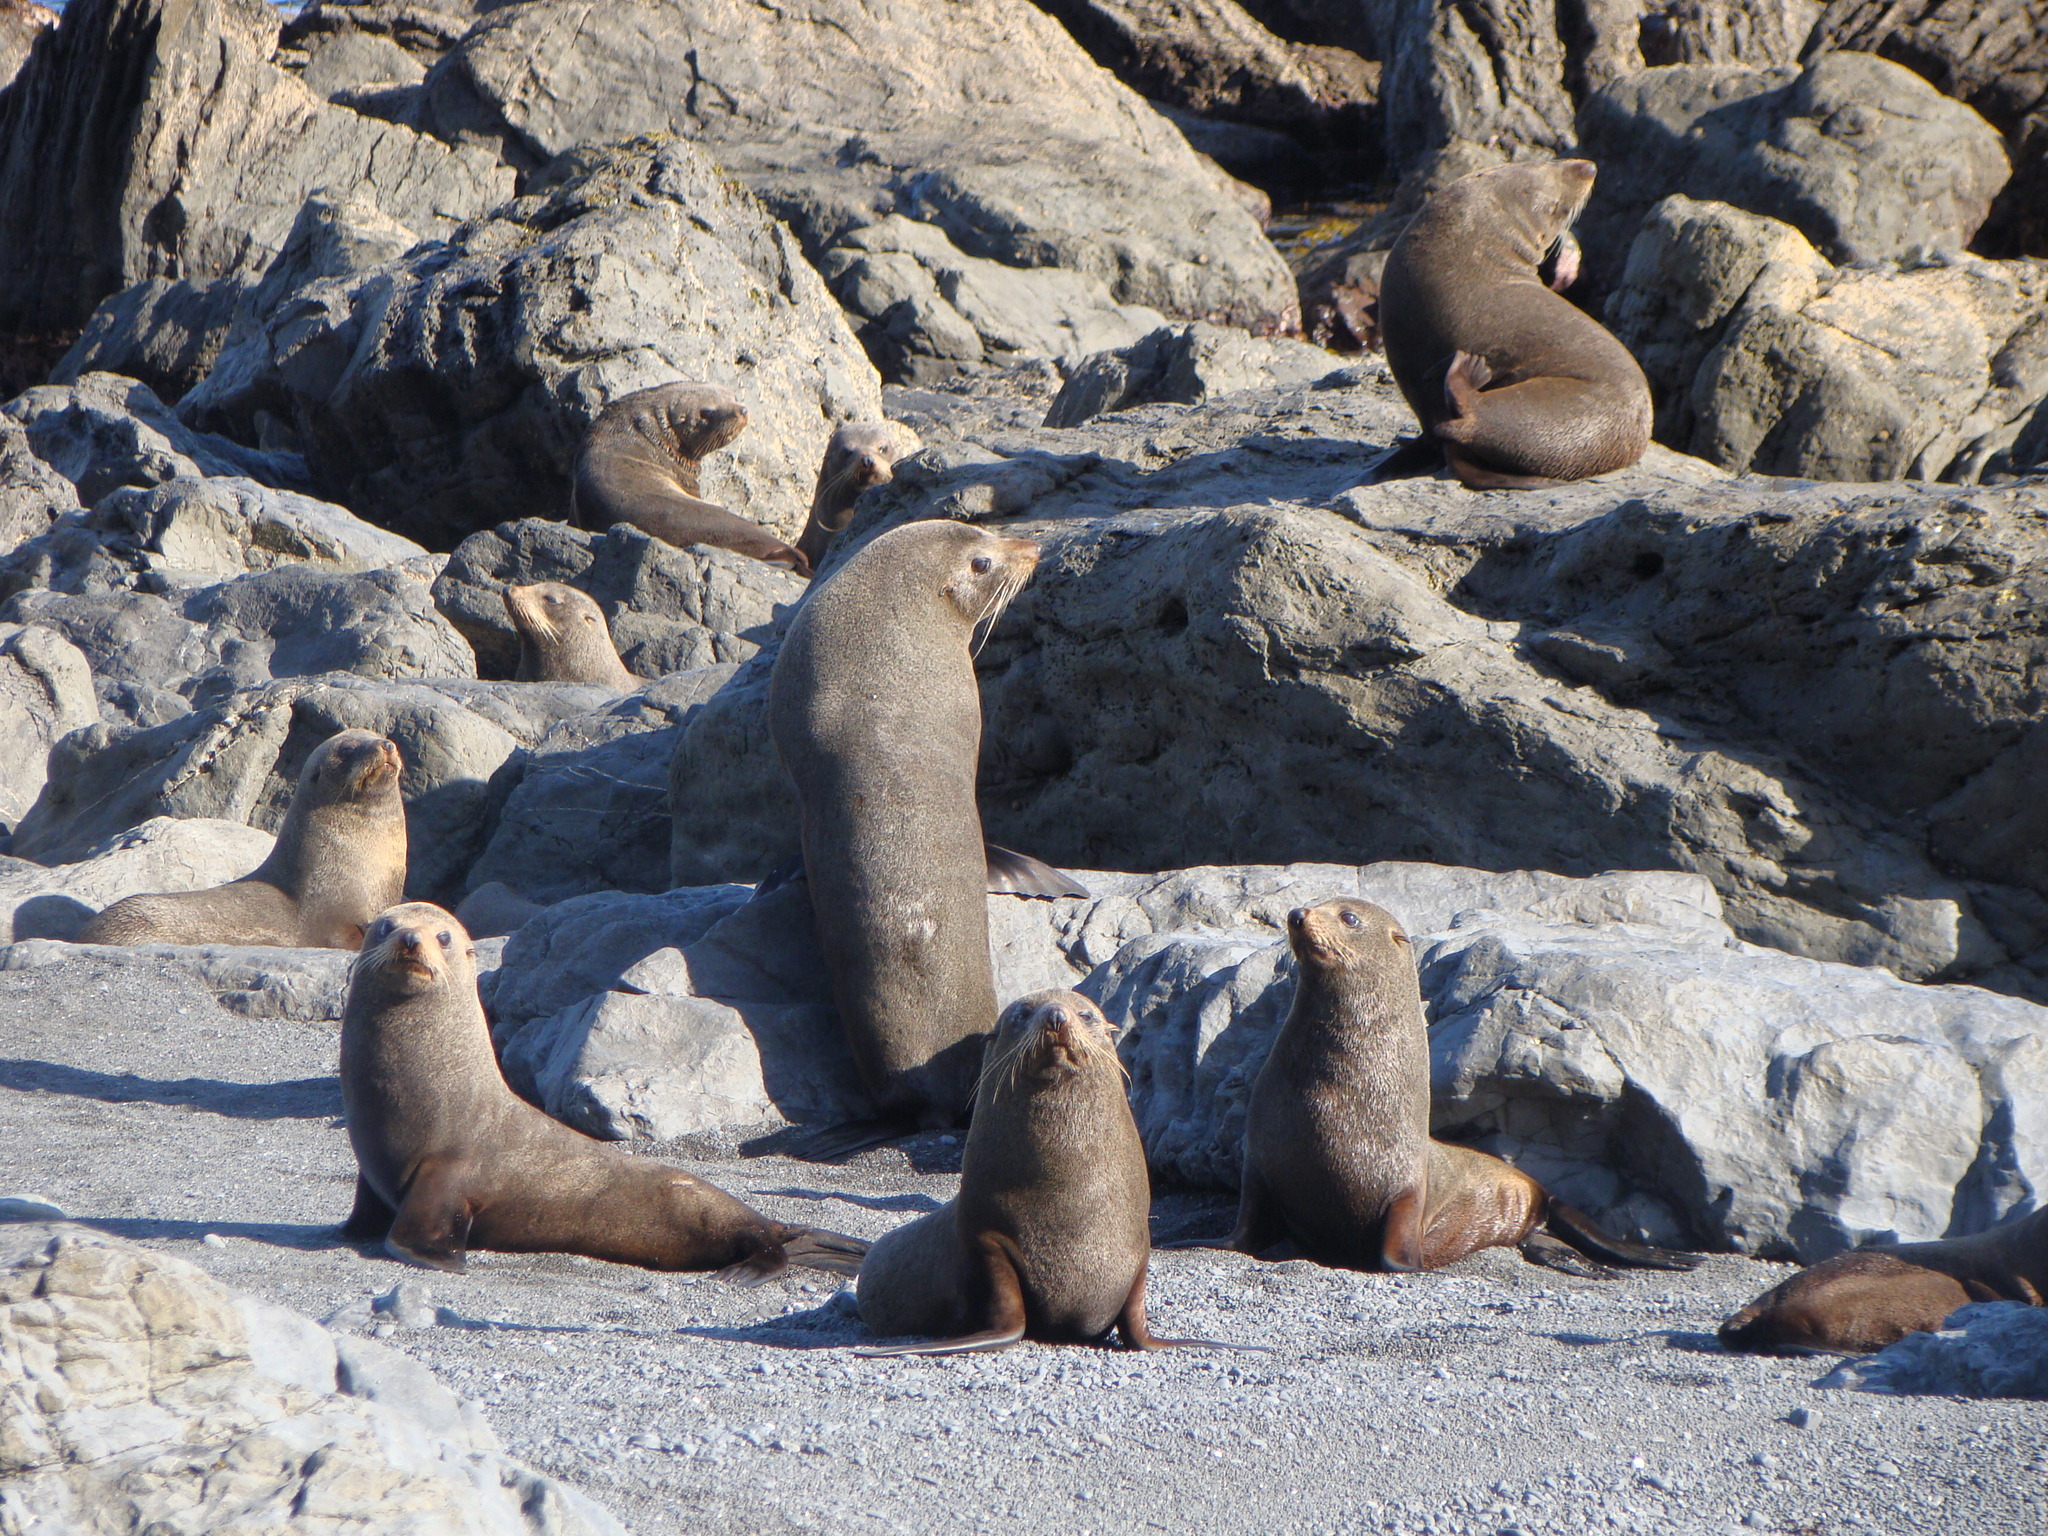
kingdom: Animalia
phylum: Chordata
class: Mammalia
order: Carnivora
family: Otariidae
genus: Arctocephalus
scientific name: Arctocephalus forsteri
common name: New zealand fur seal
